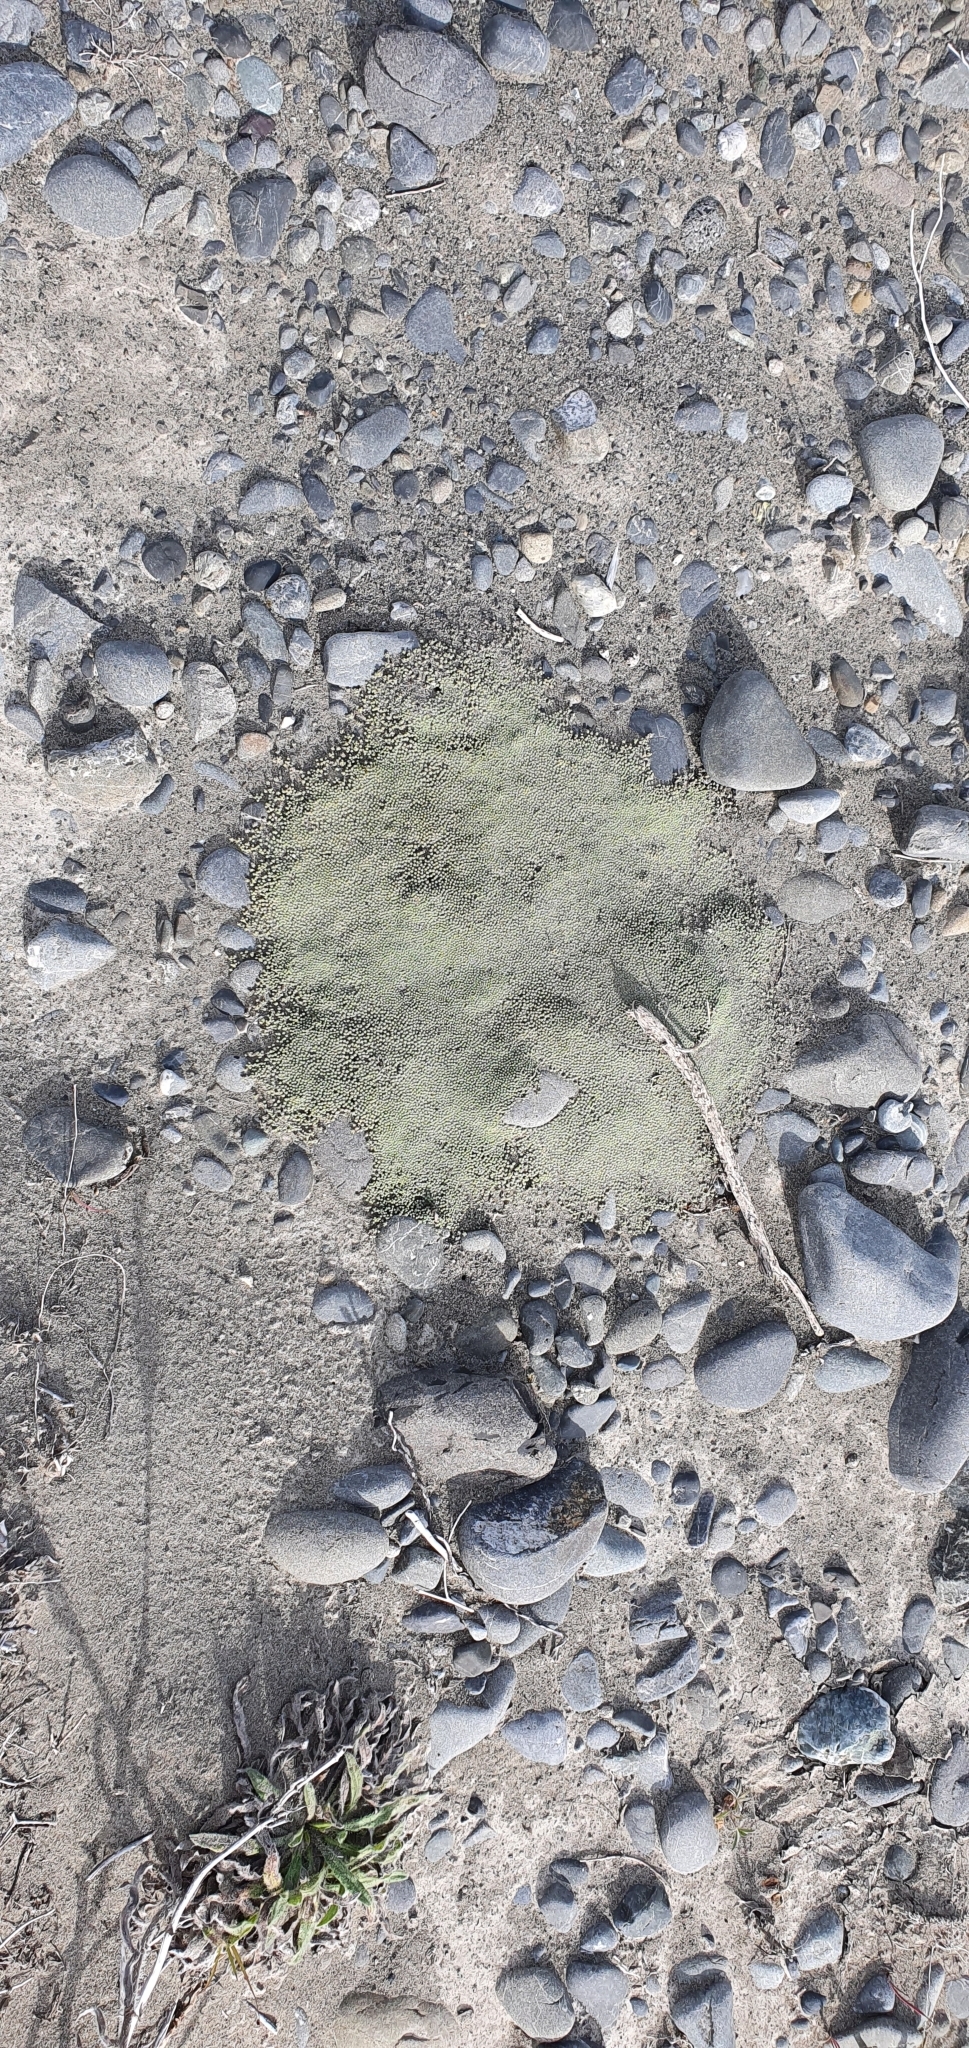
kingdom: Plantae
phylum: Tracheophyta
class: Magnoliopsida
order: Asterales
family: Asteraceae
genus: Raoulia
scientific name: Raoulia australis
